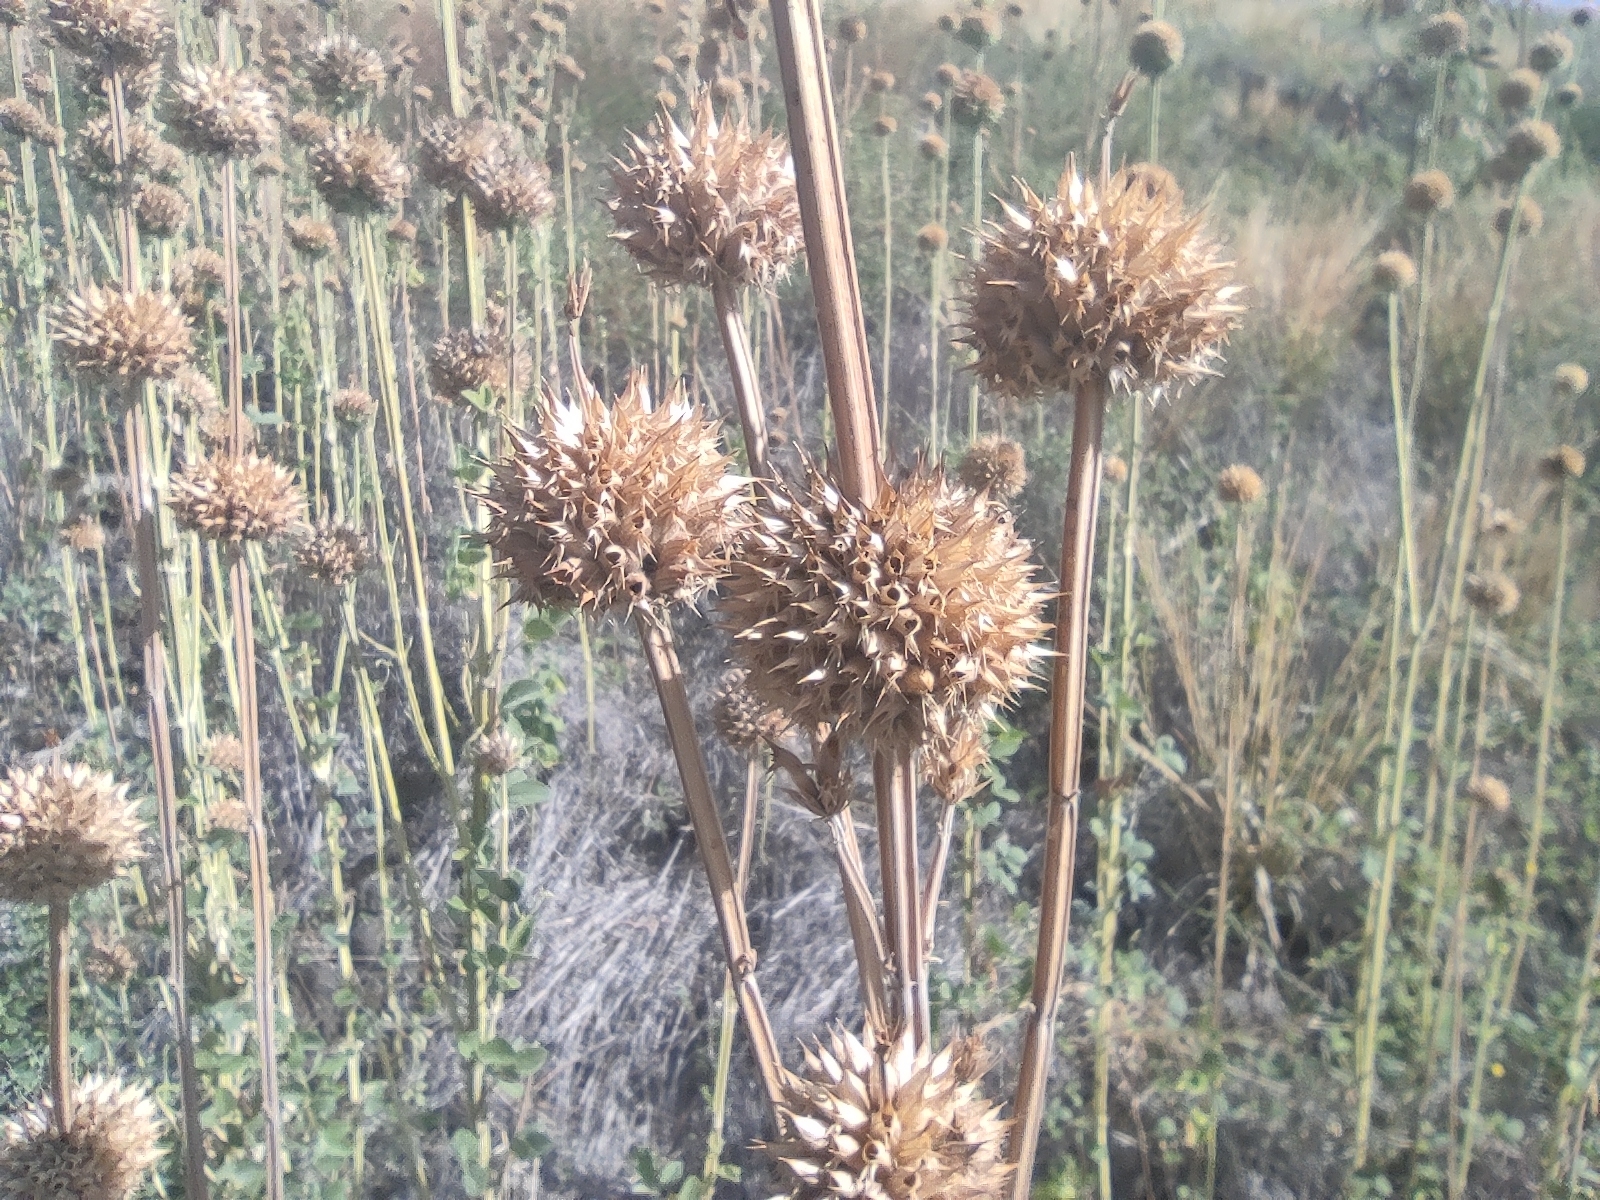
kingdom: Plantae
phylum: Tracheophyta
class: Magnoliopsida
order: Lamiales
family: Lamiaceae
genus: Leonotis
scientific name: Leonotis nepetifolia
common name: Christmas candlestick
